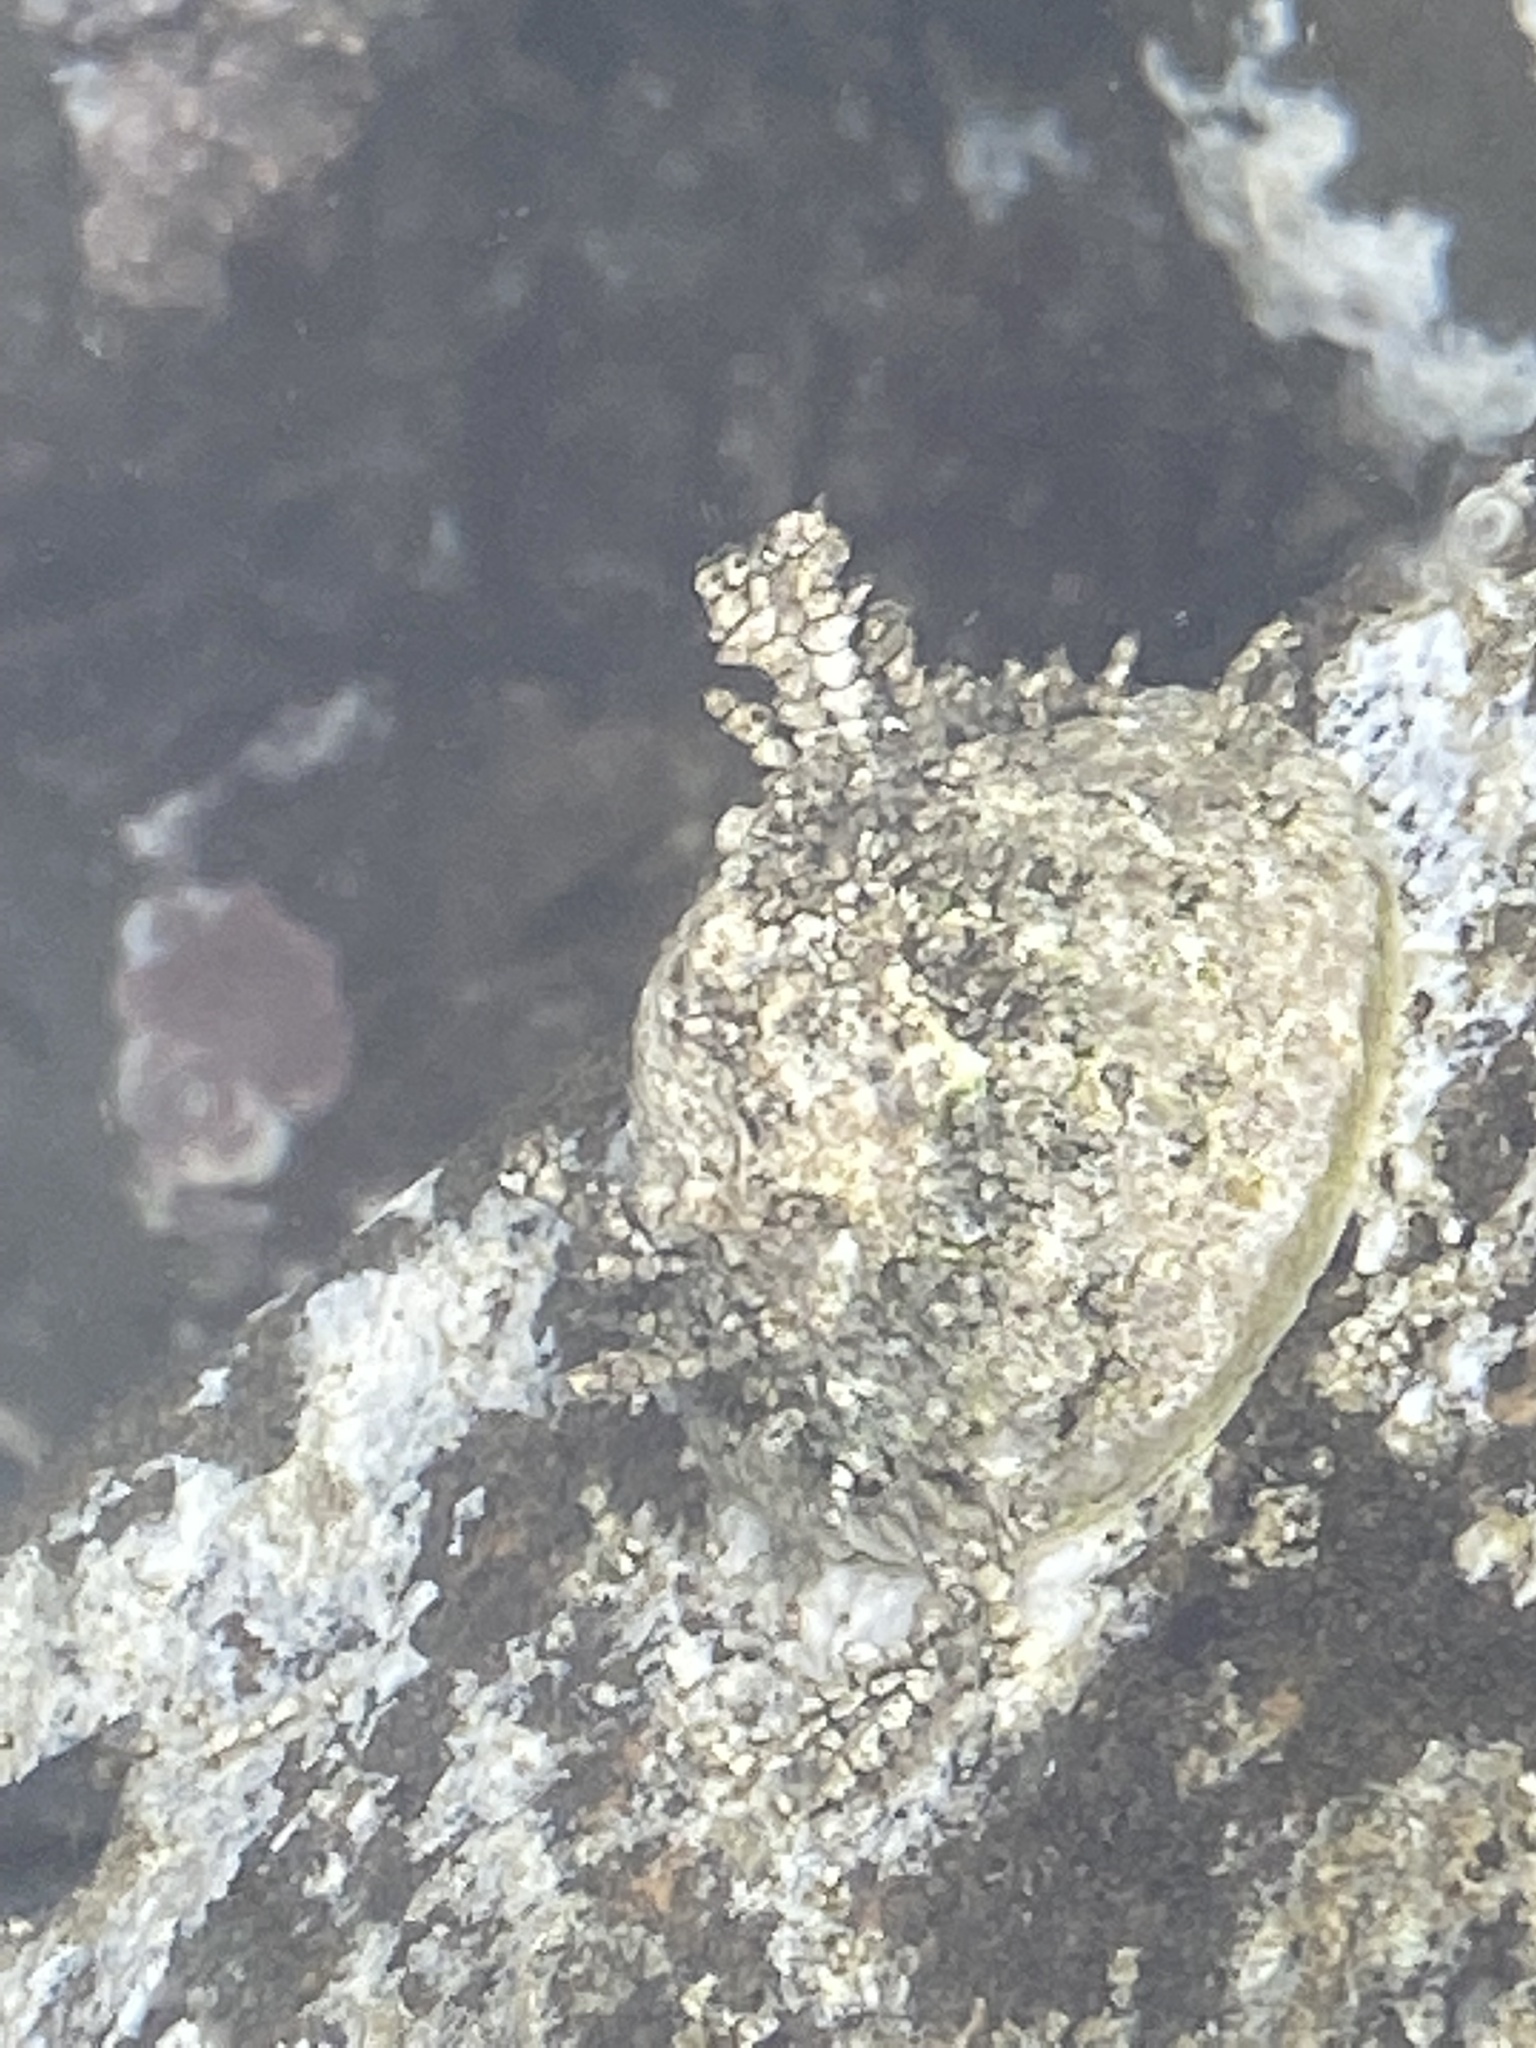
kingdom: Animalia
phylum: Mollusca
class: Gastropoda
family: Acmaeidae
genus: Acmaea
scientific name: Acmaea mitra
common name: Pacific white cap limpet
